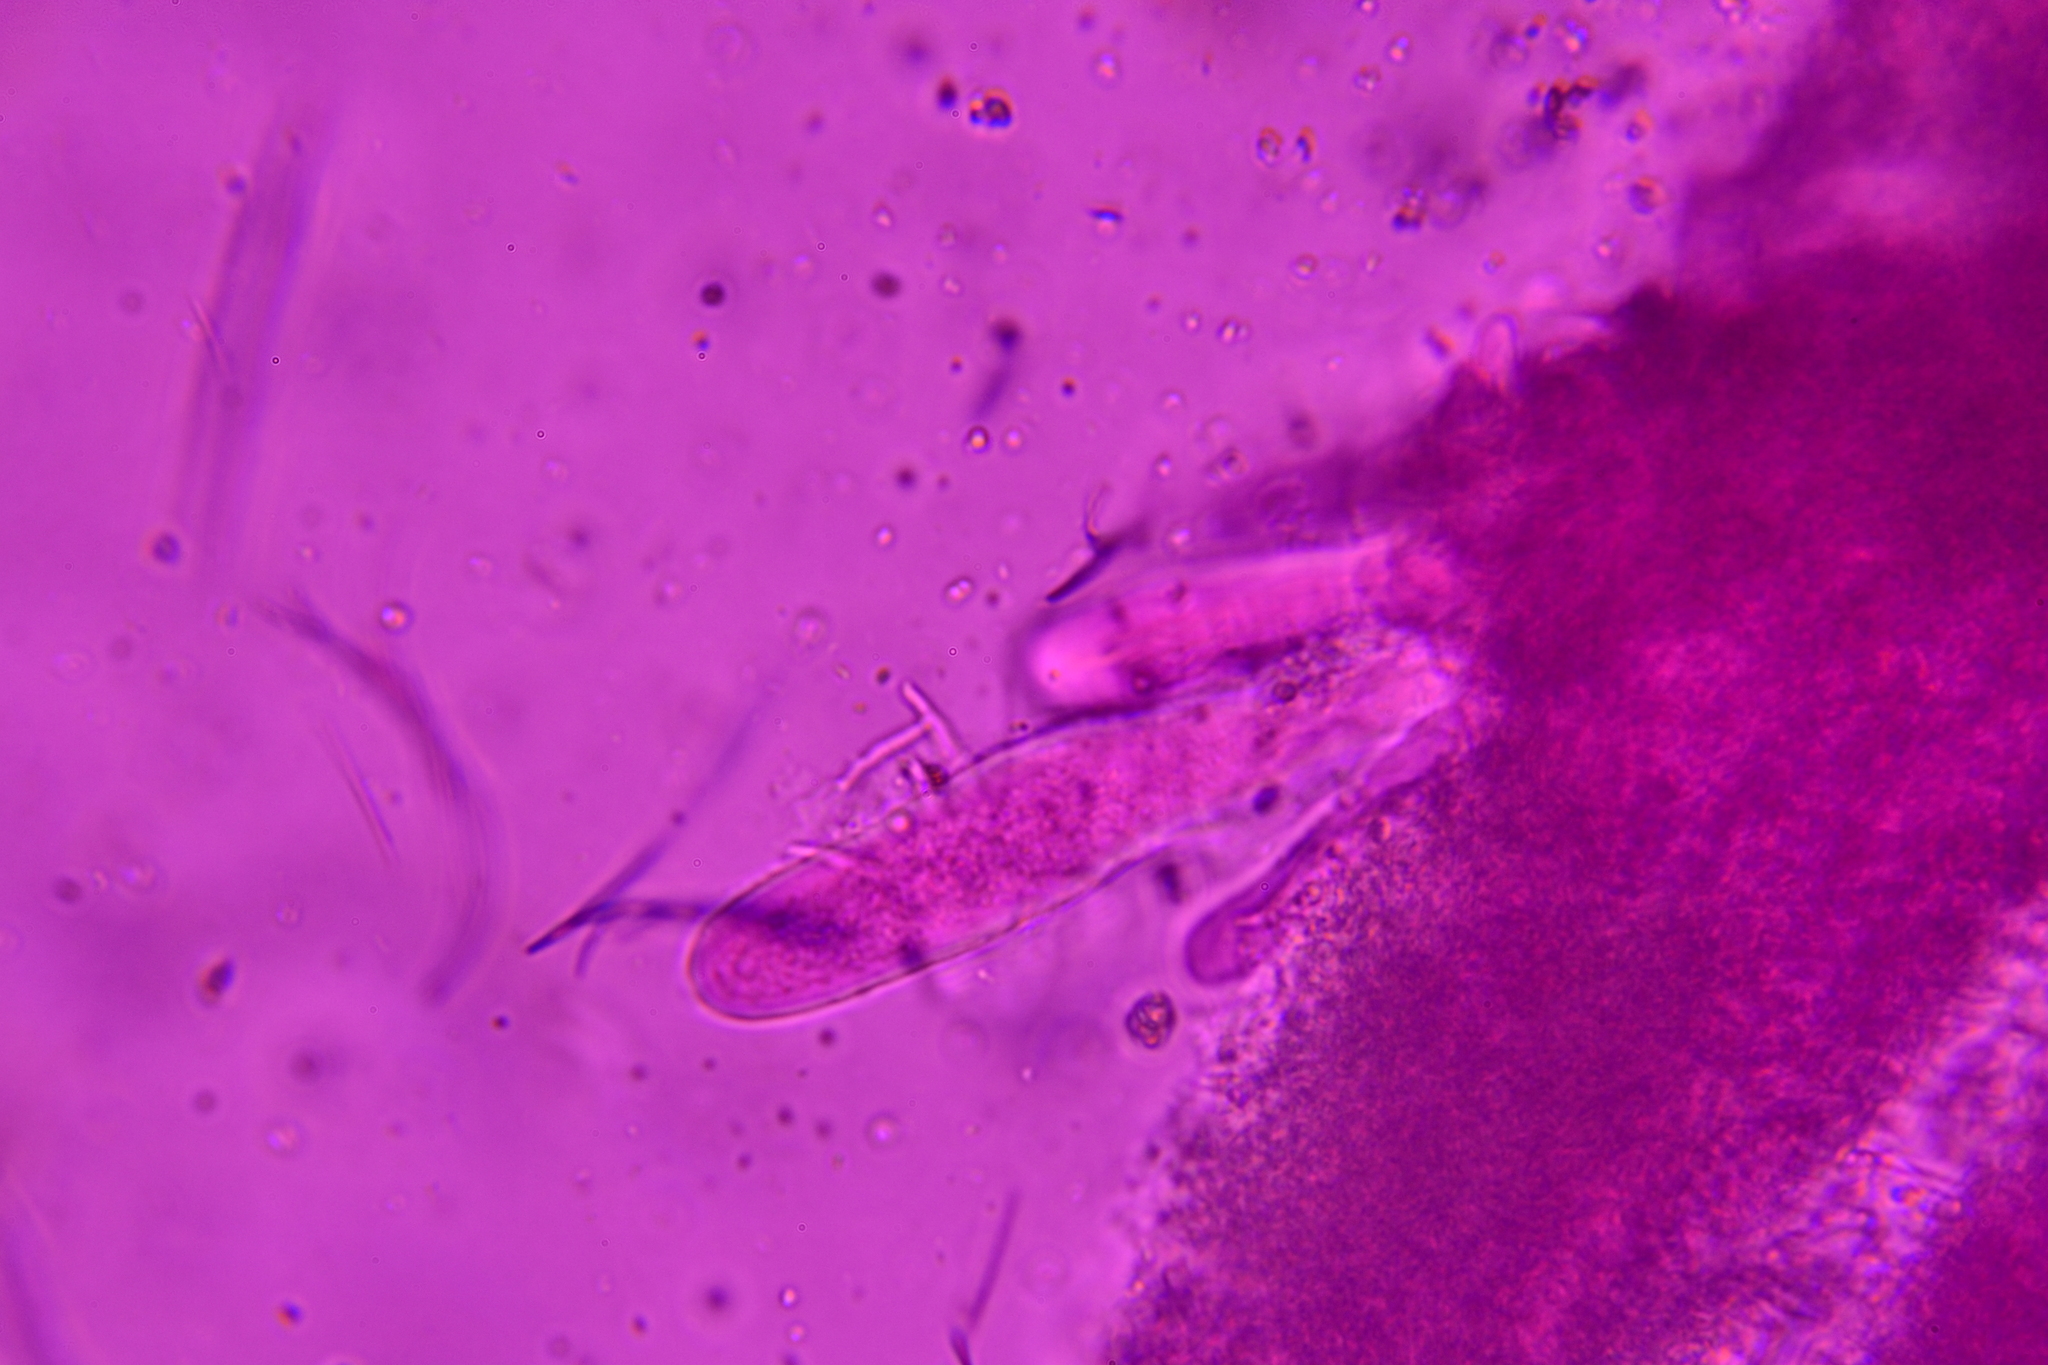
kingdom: Fungi
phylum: Ascomycota
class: Dothideomycetes
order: Hysteriales
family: Hysteriaceae
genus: Gloniopsis
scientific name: Gloniopsis subrugosa
